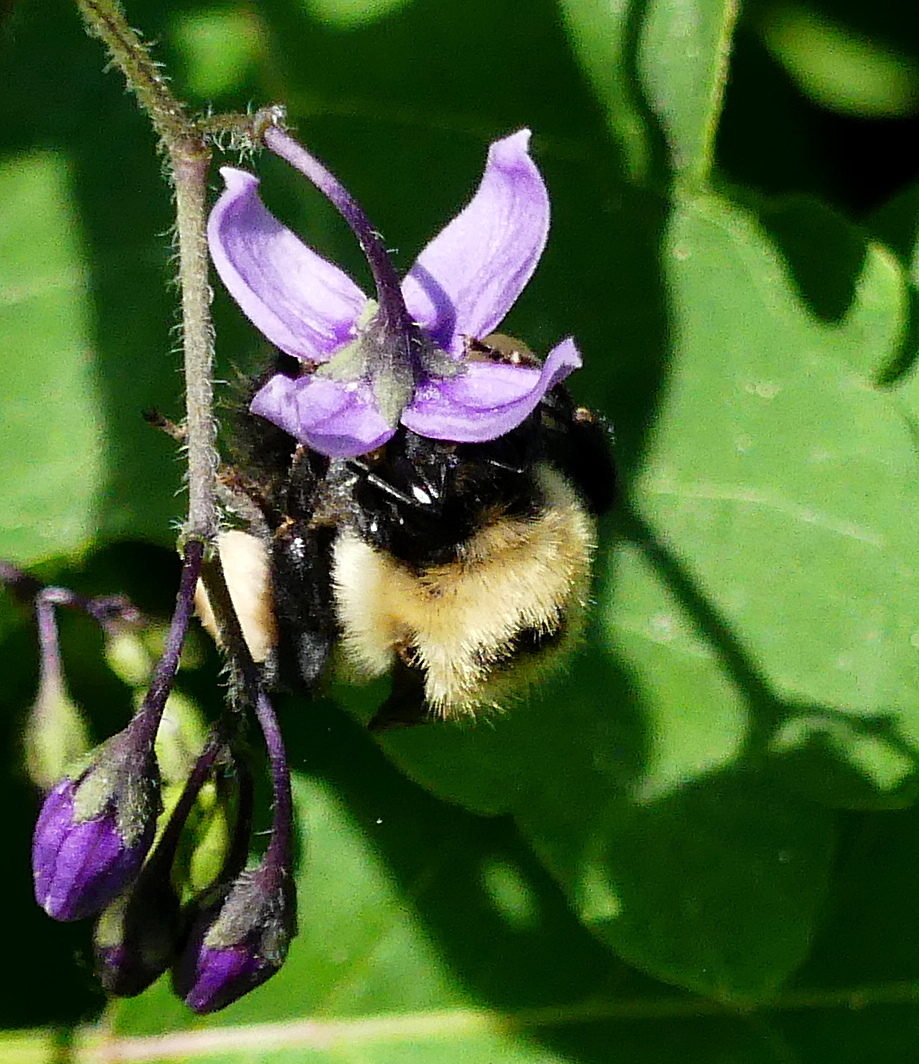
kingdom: Animalia
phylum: Arthropoda
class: Insecta
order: Hymenoptera
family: Apidae
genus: Bombus
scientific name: Bombus rufocinctus
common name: Red-belted bumble bee
